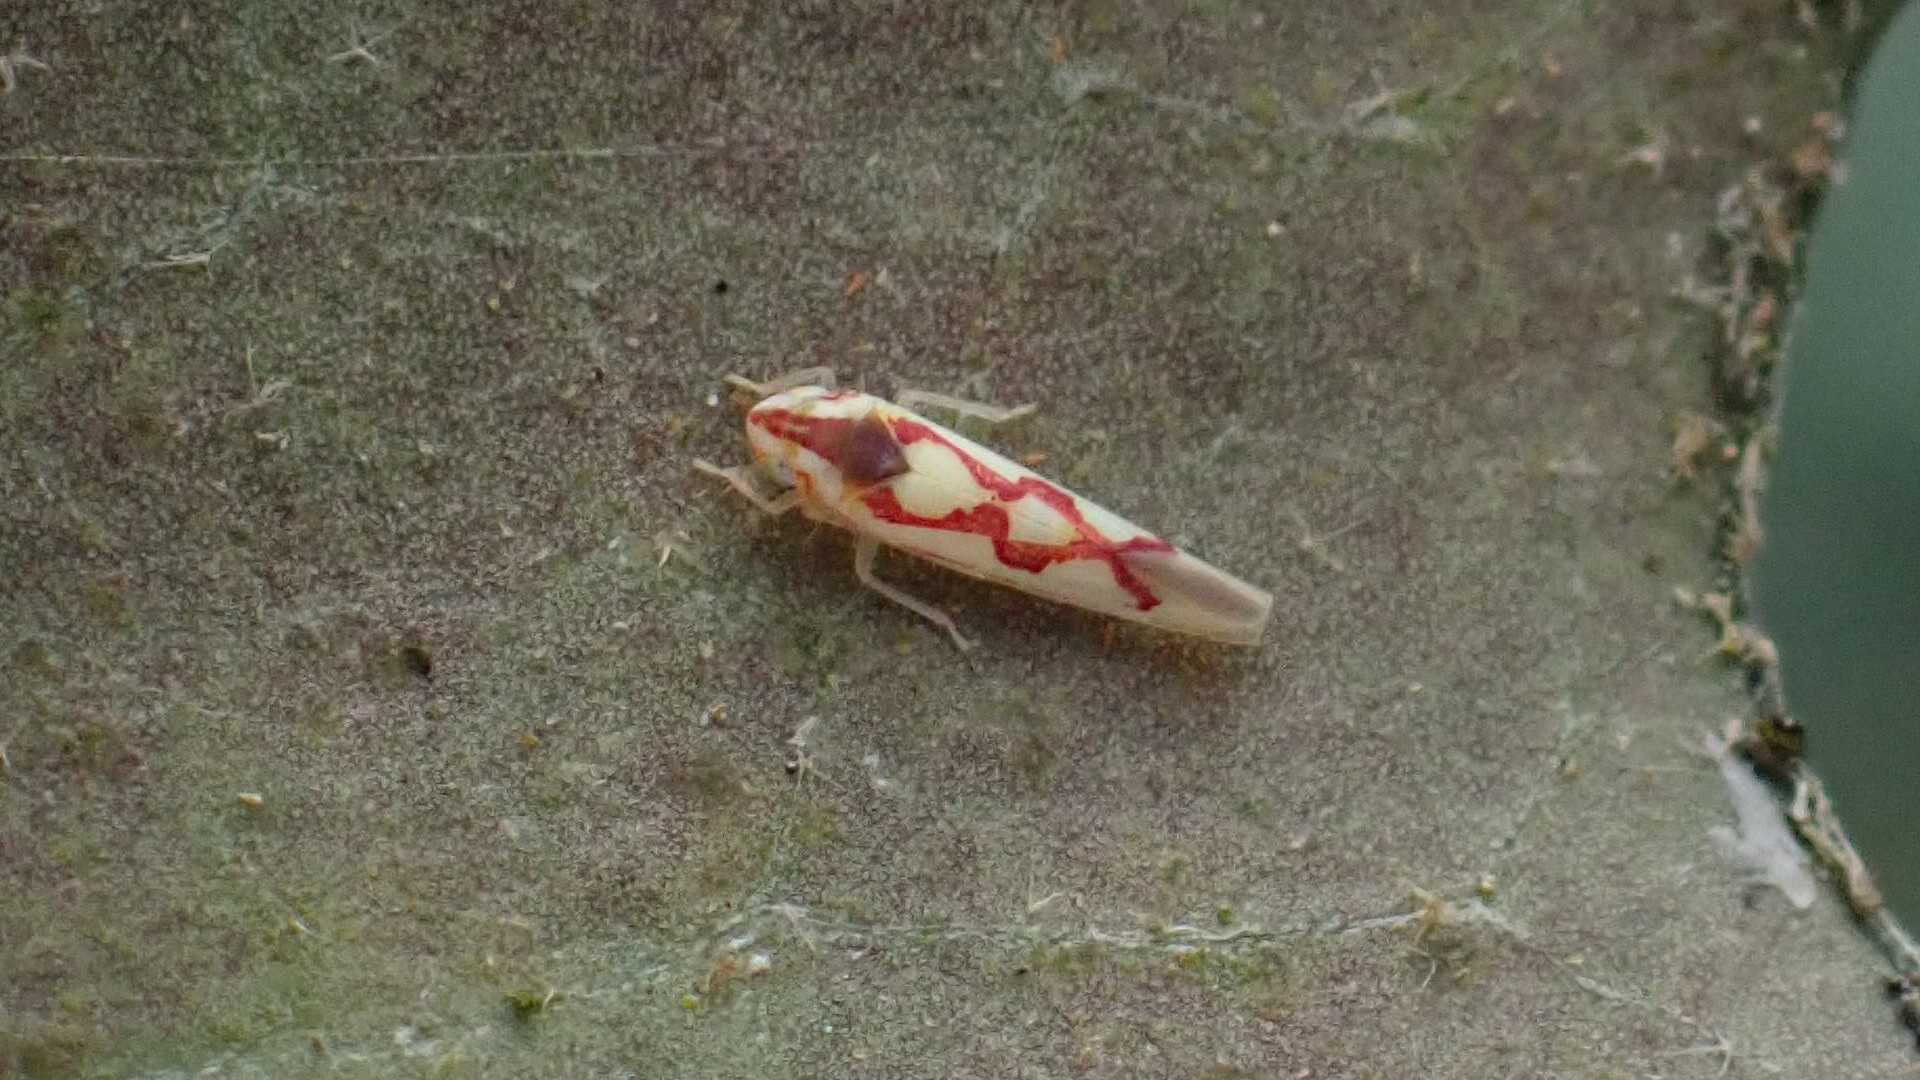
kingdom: Animalia
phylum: Arthropoda
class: Insecta
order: Hemiptera
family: Cicadellidae
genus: Zygina
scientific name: Zygina flammigera
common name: Leafhopper
